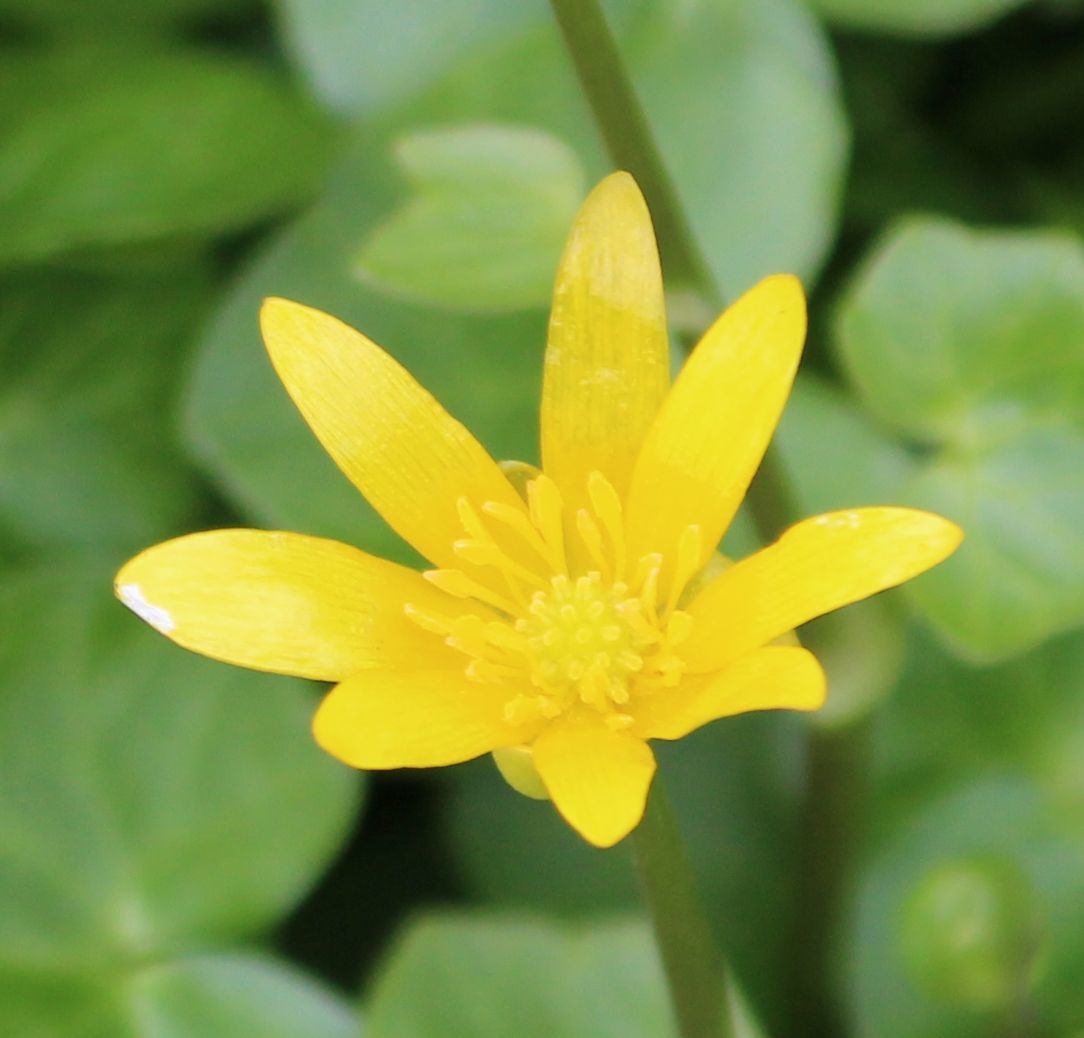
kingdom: Plantae
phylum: Tracheophyta
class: Magnoliopsida
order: Ranunculales
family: Ranunculaceae
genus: Ficaria
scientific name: Ficaria verna
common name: Lesser celandine
